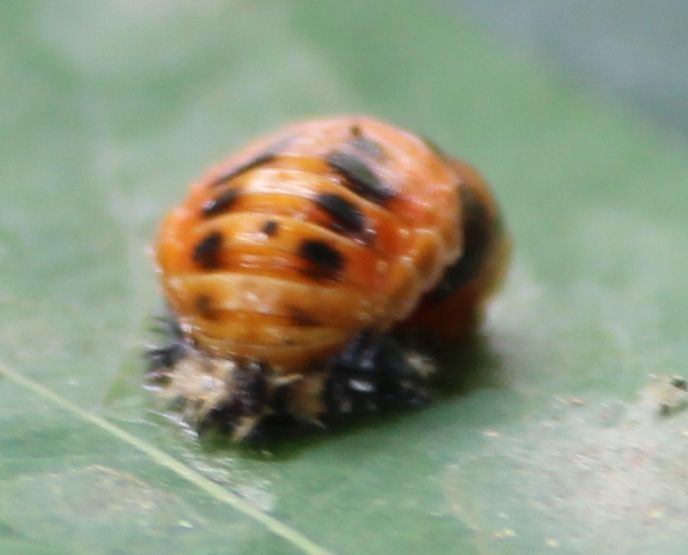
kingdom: Animalia
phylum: Arthropoda
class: Insecta
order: Coleoptera
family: Coccinellidae
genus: Harmonia
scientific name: Harmonia axyridis
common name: Harlequin ladybird
